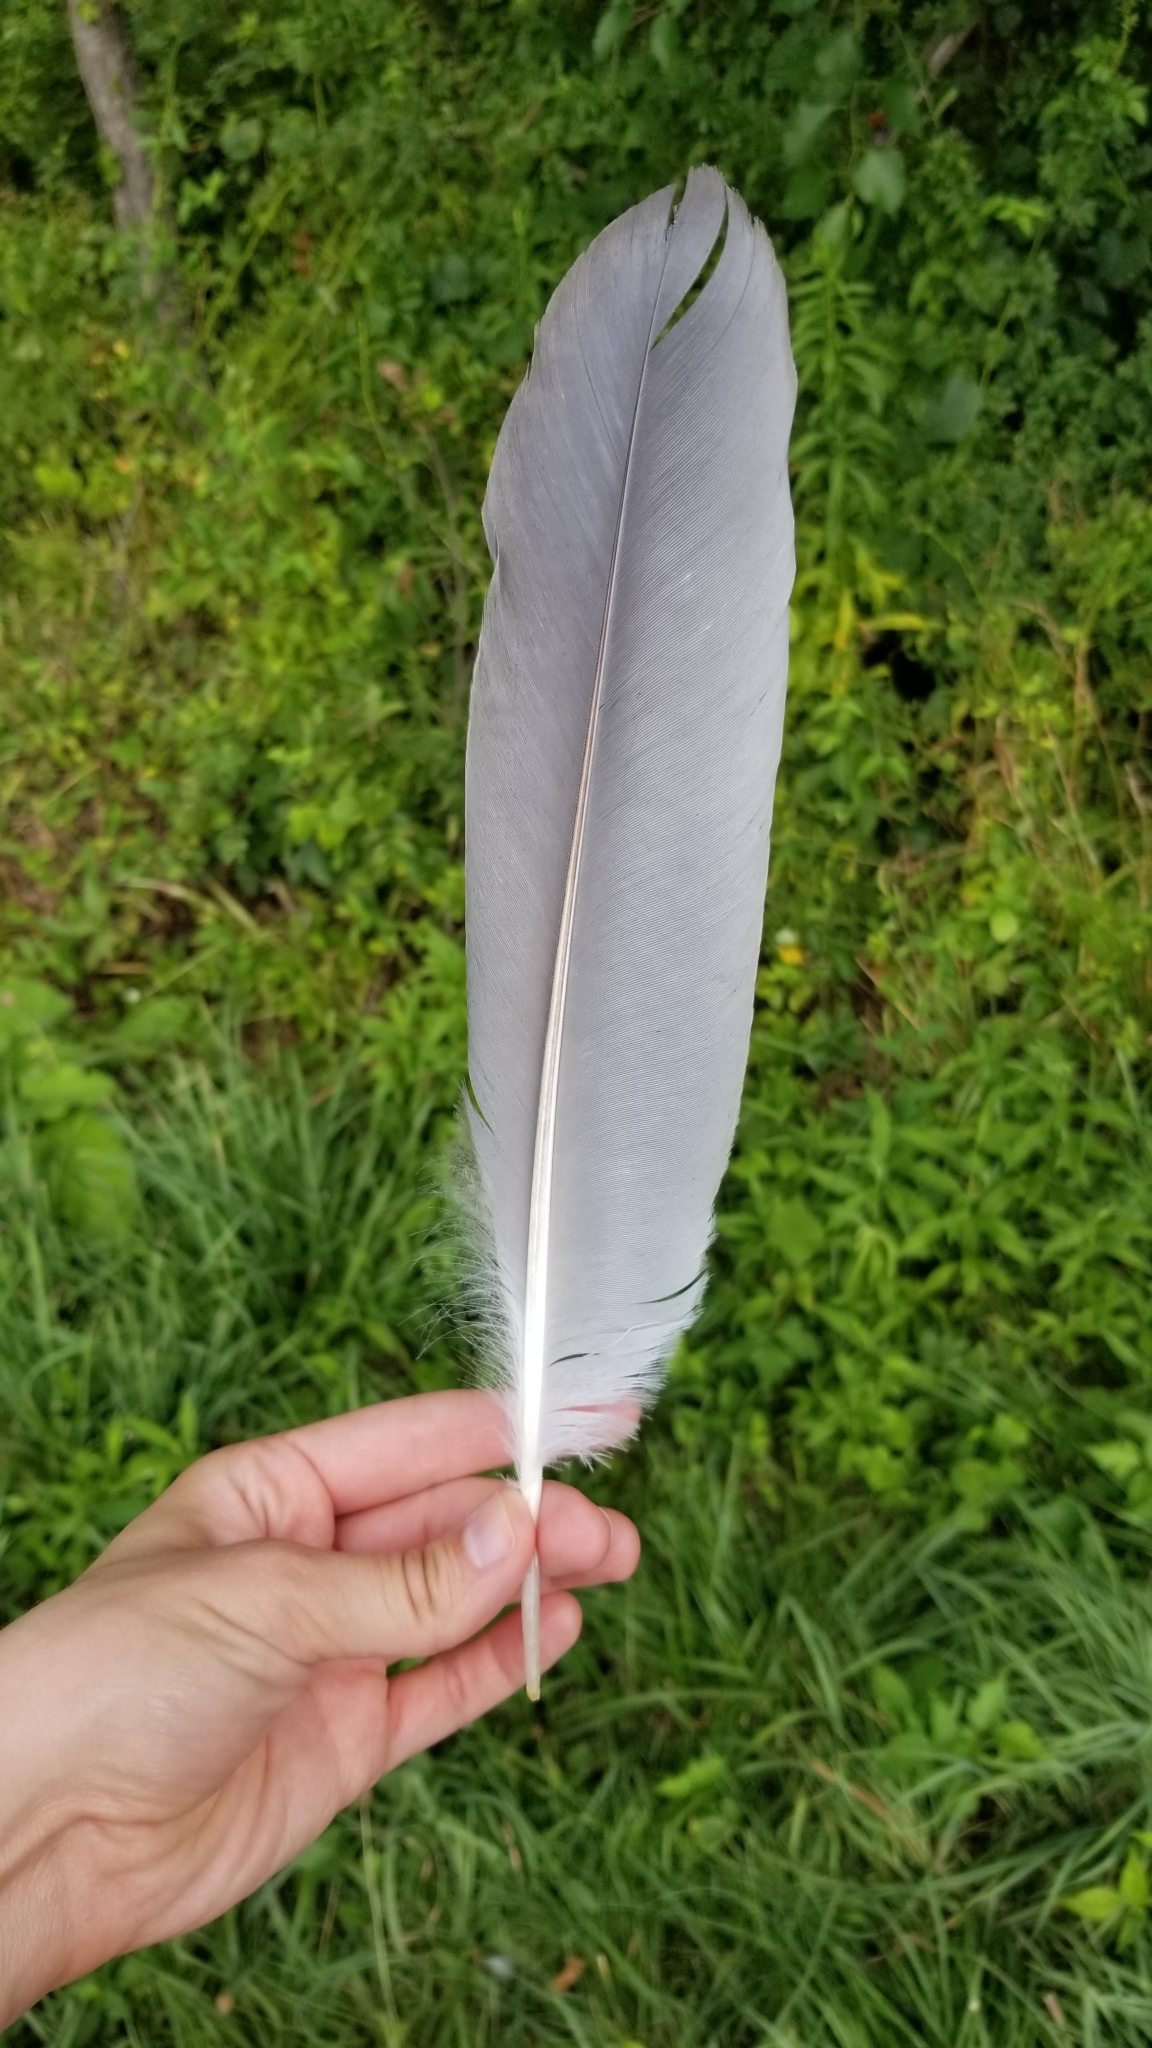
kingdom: Animalia
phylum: Chordata
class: Aves
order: Pelecaniformes
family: Ardeidae
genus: Ardea
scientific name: Ardea herodias
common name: Great blue heron
